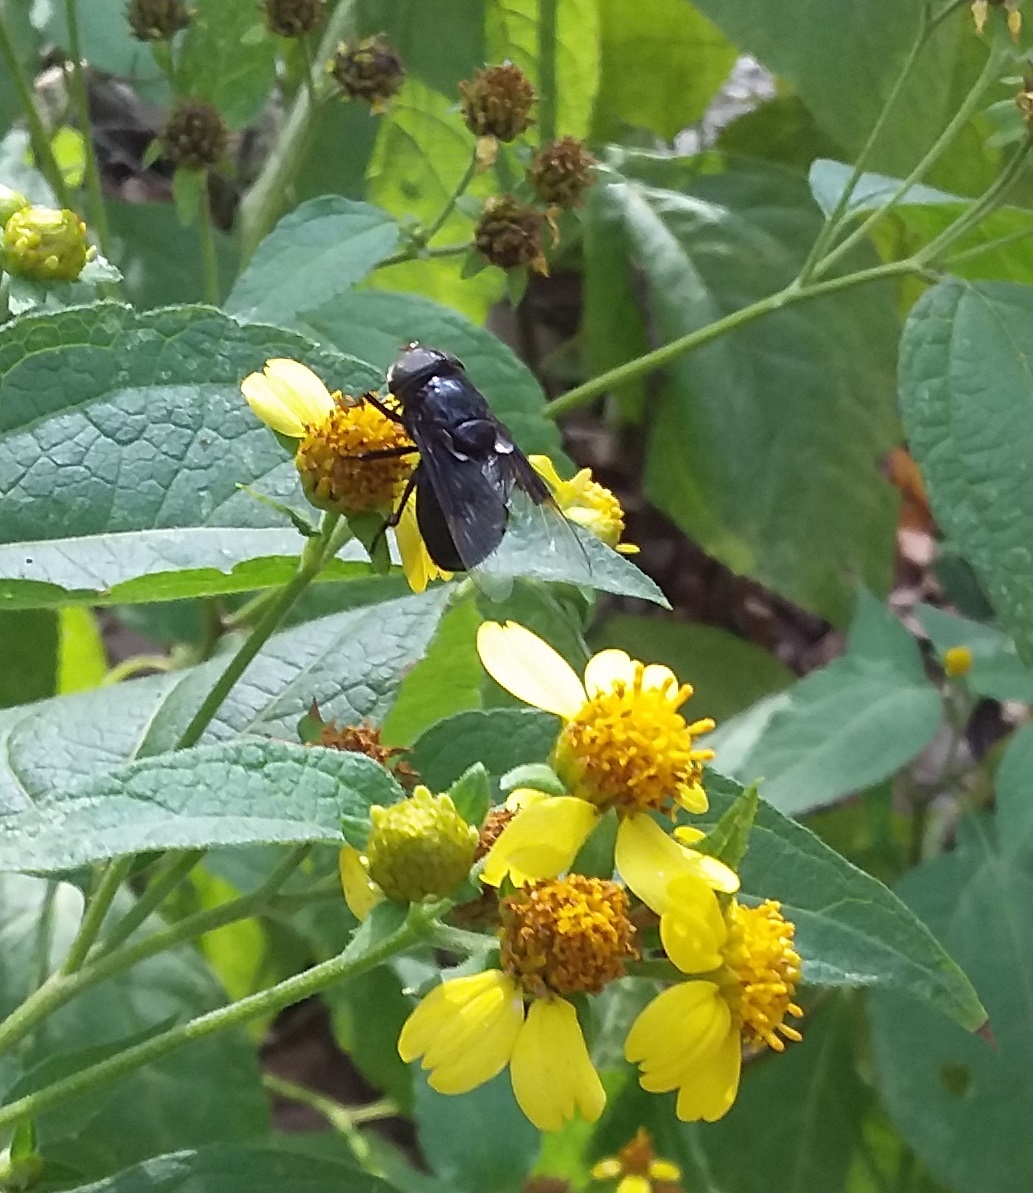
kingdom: Animalia
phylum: Arthropoda
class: Insecta
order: Diptera
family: Syrphidae
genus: Copestylum
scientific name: Copestylum mexicanum
